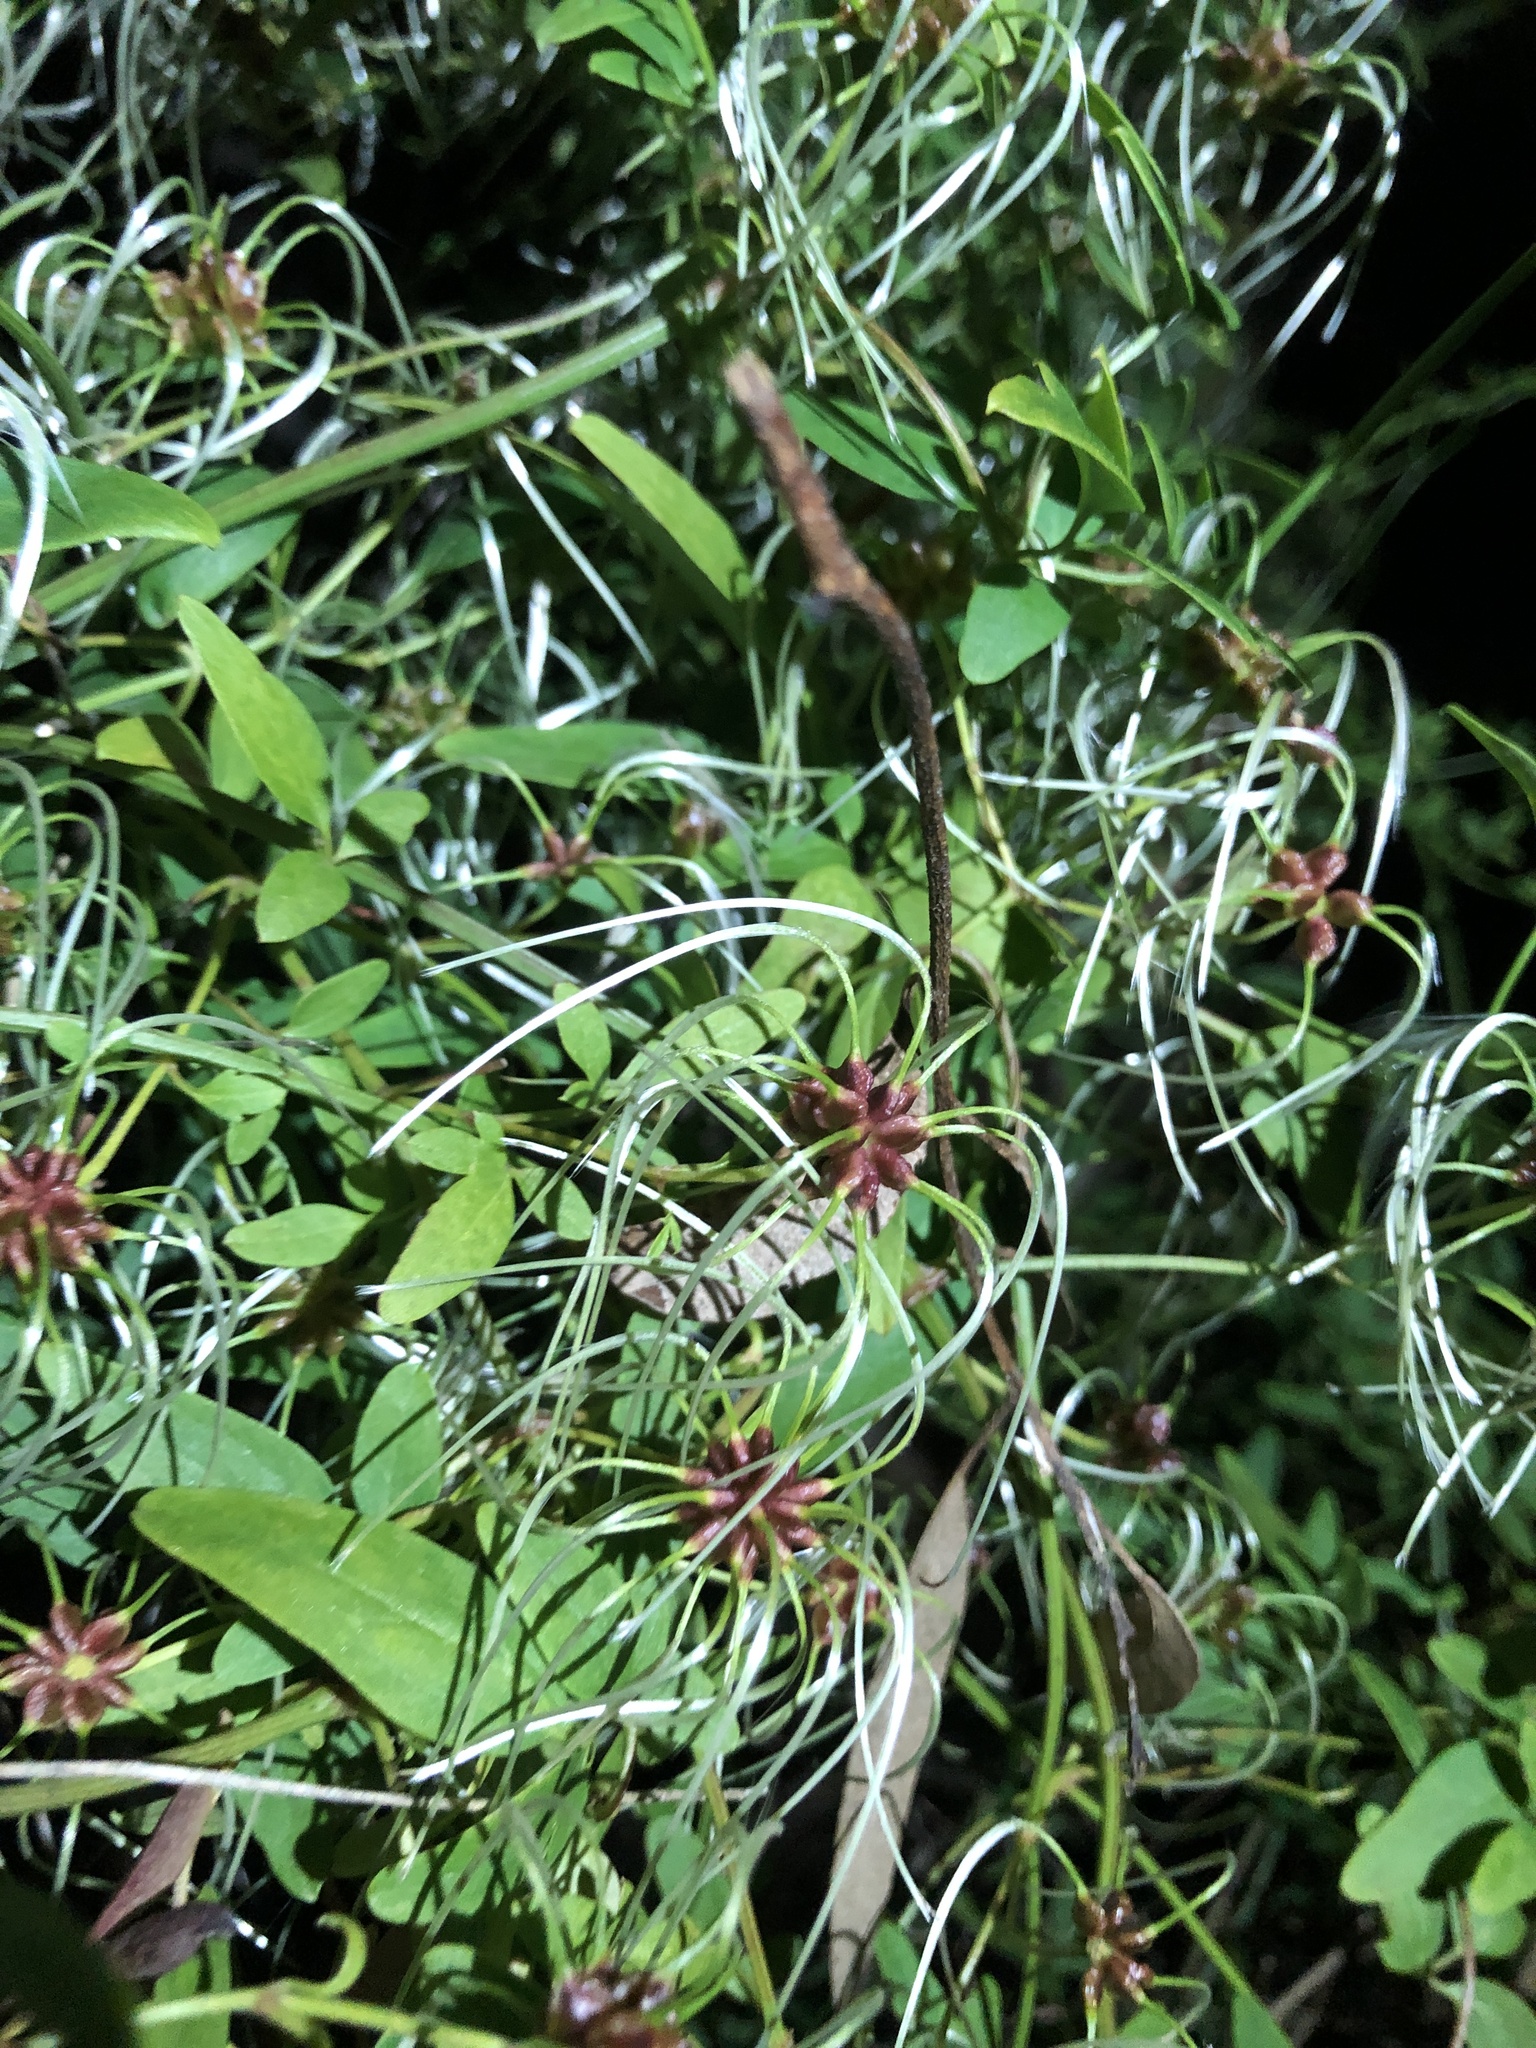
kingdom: Plantae
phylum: Tracheophyta
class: Magnoliopsida
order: Ranunculales
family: Ranunculaceae
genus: Clematis
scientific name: Clematis microphylla
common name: Headachevine
